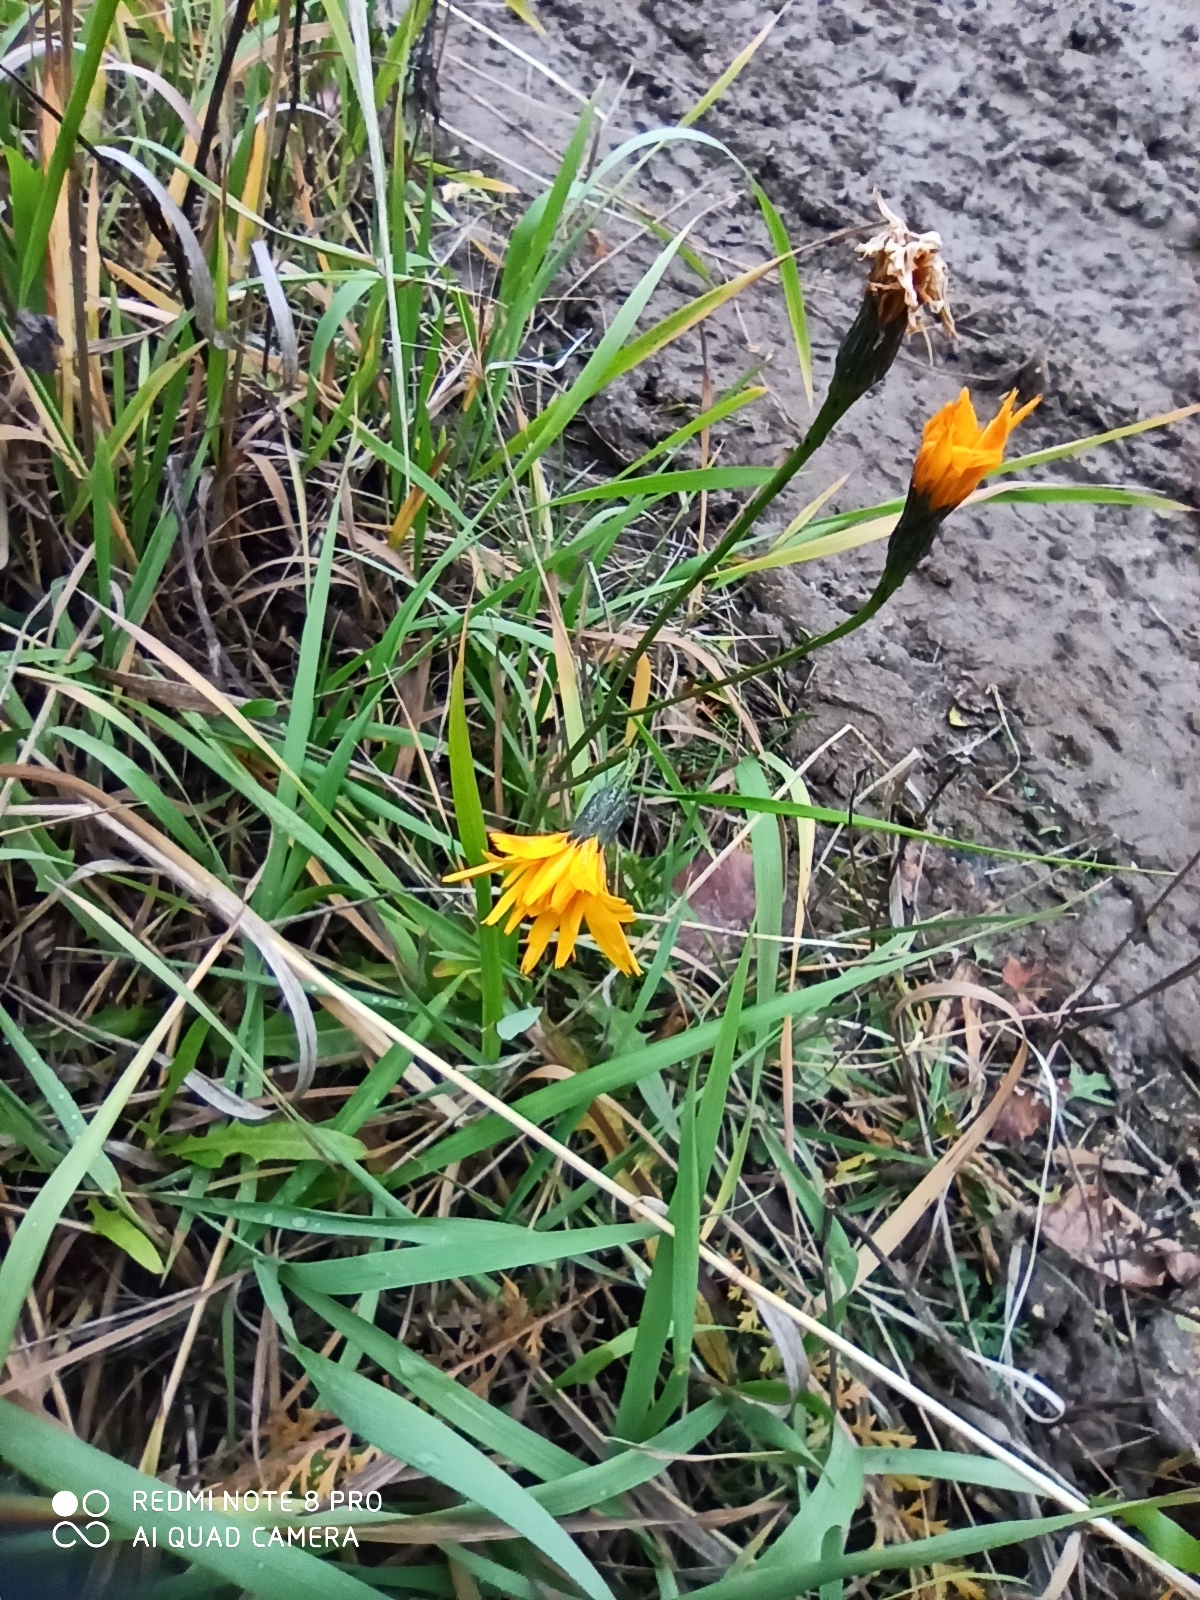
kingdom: Plantae
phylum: Tracheophyta
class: Magnoliopsida
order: Asterales
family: Asteraceae
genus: Scorzoneroides
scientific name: Scorzoneroides autumnalis
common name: Autumn hawkbit
